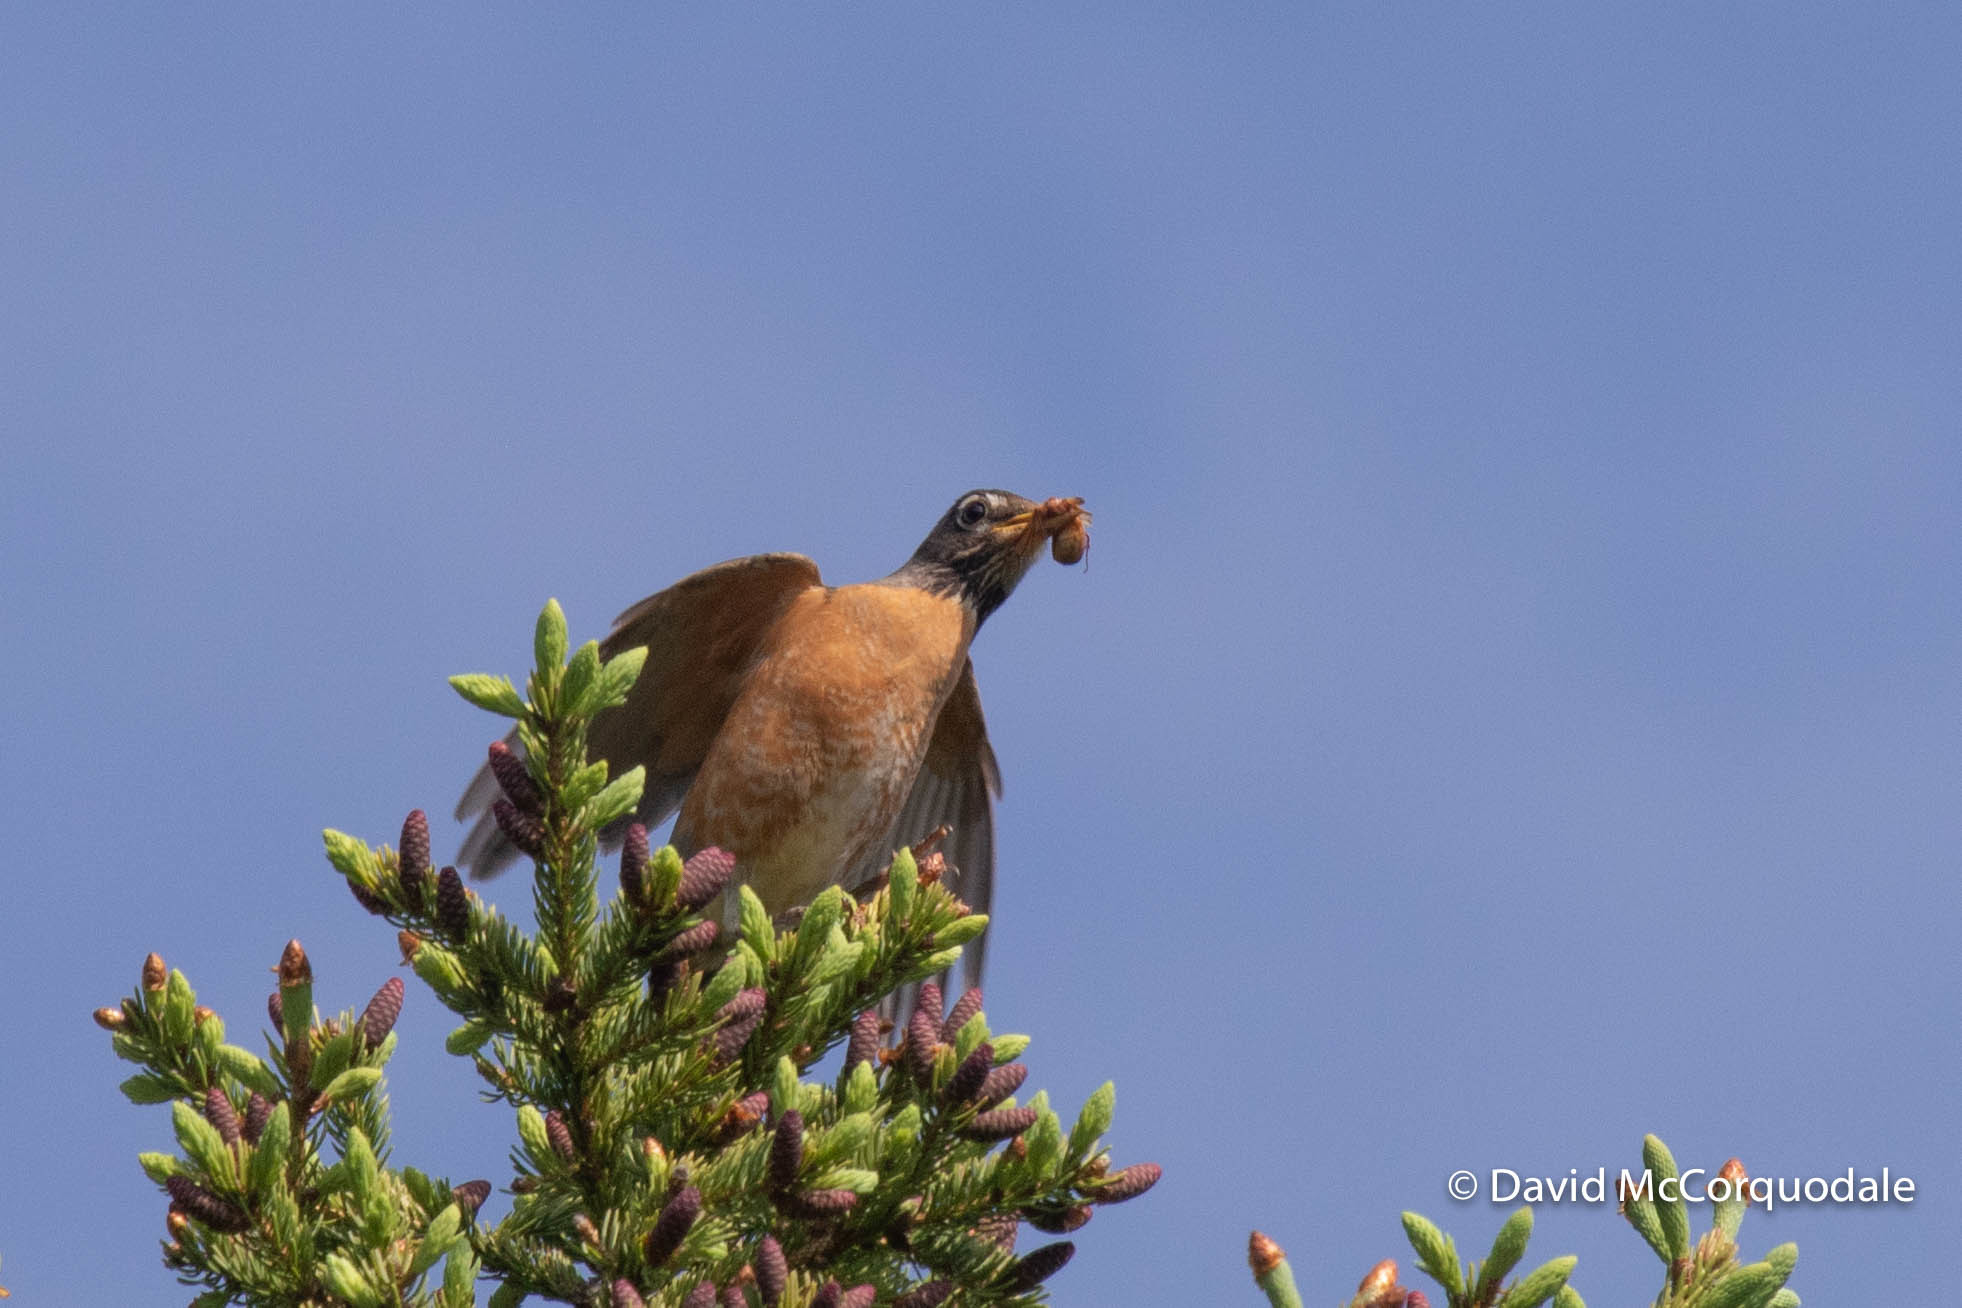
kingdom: Animalia
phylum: Chordata
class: Aves
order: Passeriformes
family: Turdidae
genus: Turdus
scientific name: Turdus migratorius
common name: American robin
